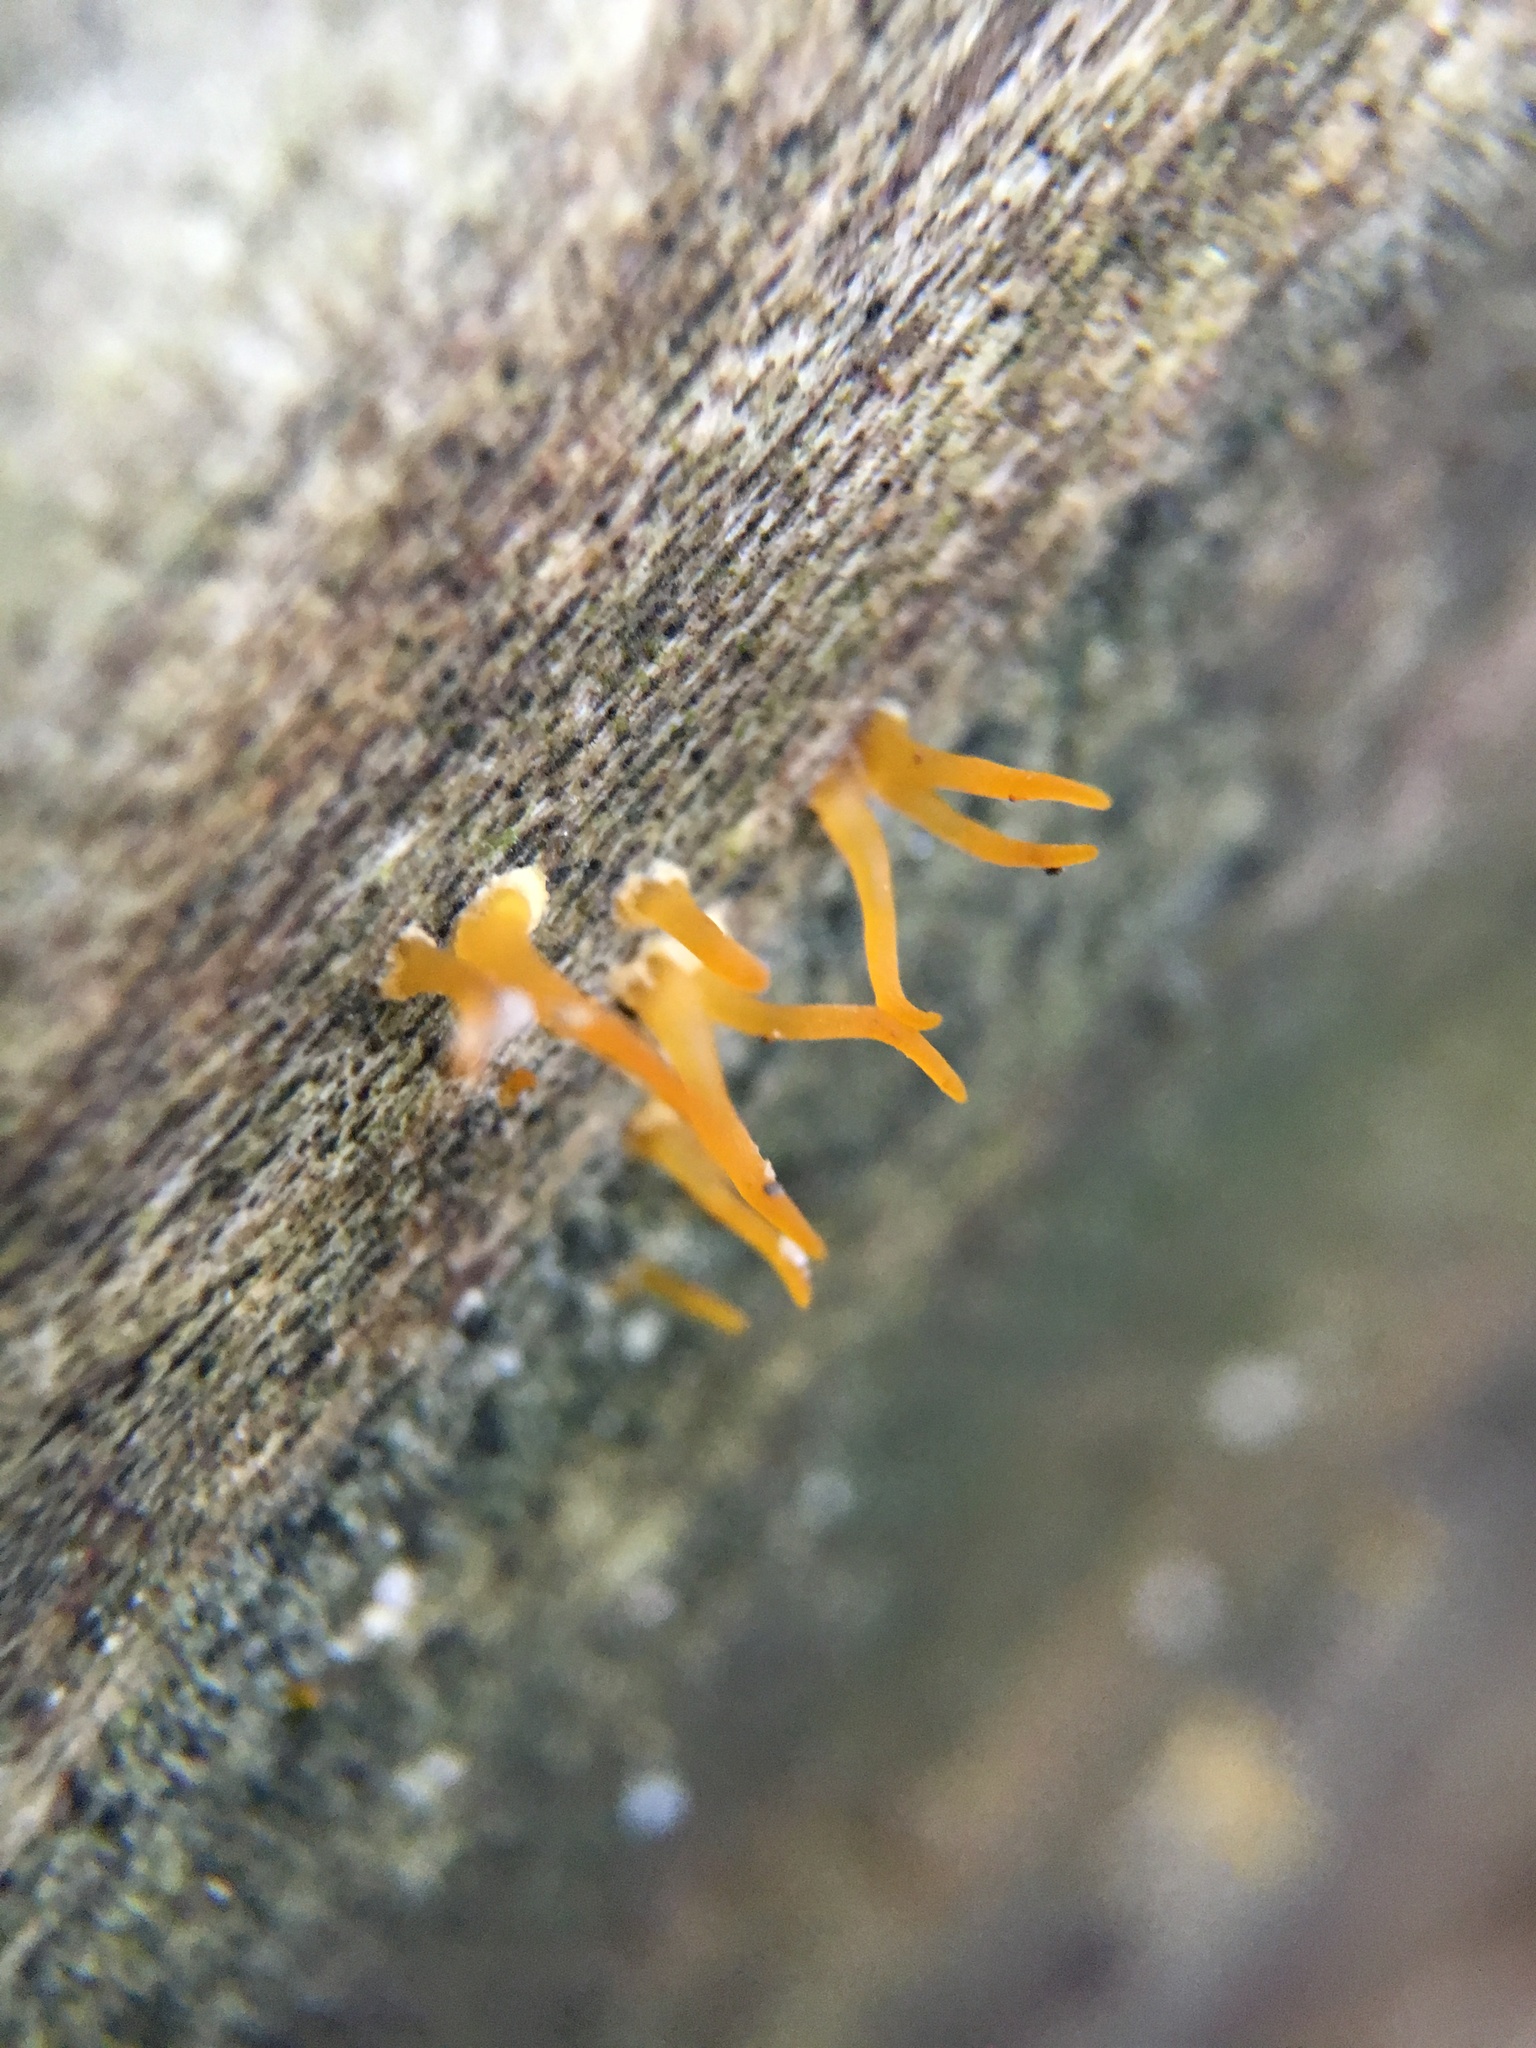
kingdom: Fungi
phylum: Basidiomycota
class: Dacrymycetes
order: Dacrymycetales
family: Dacrymycetaceae
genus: Calocera
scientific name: Calocera cornea
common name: Small stagshorn
